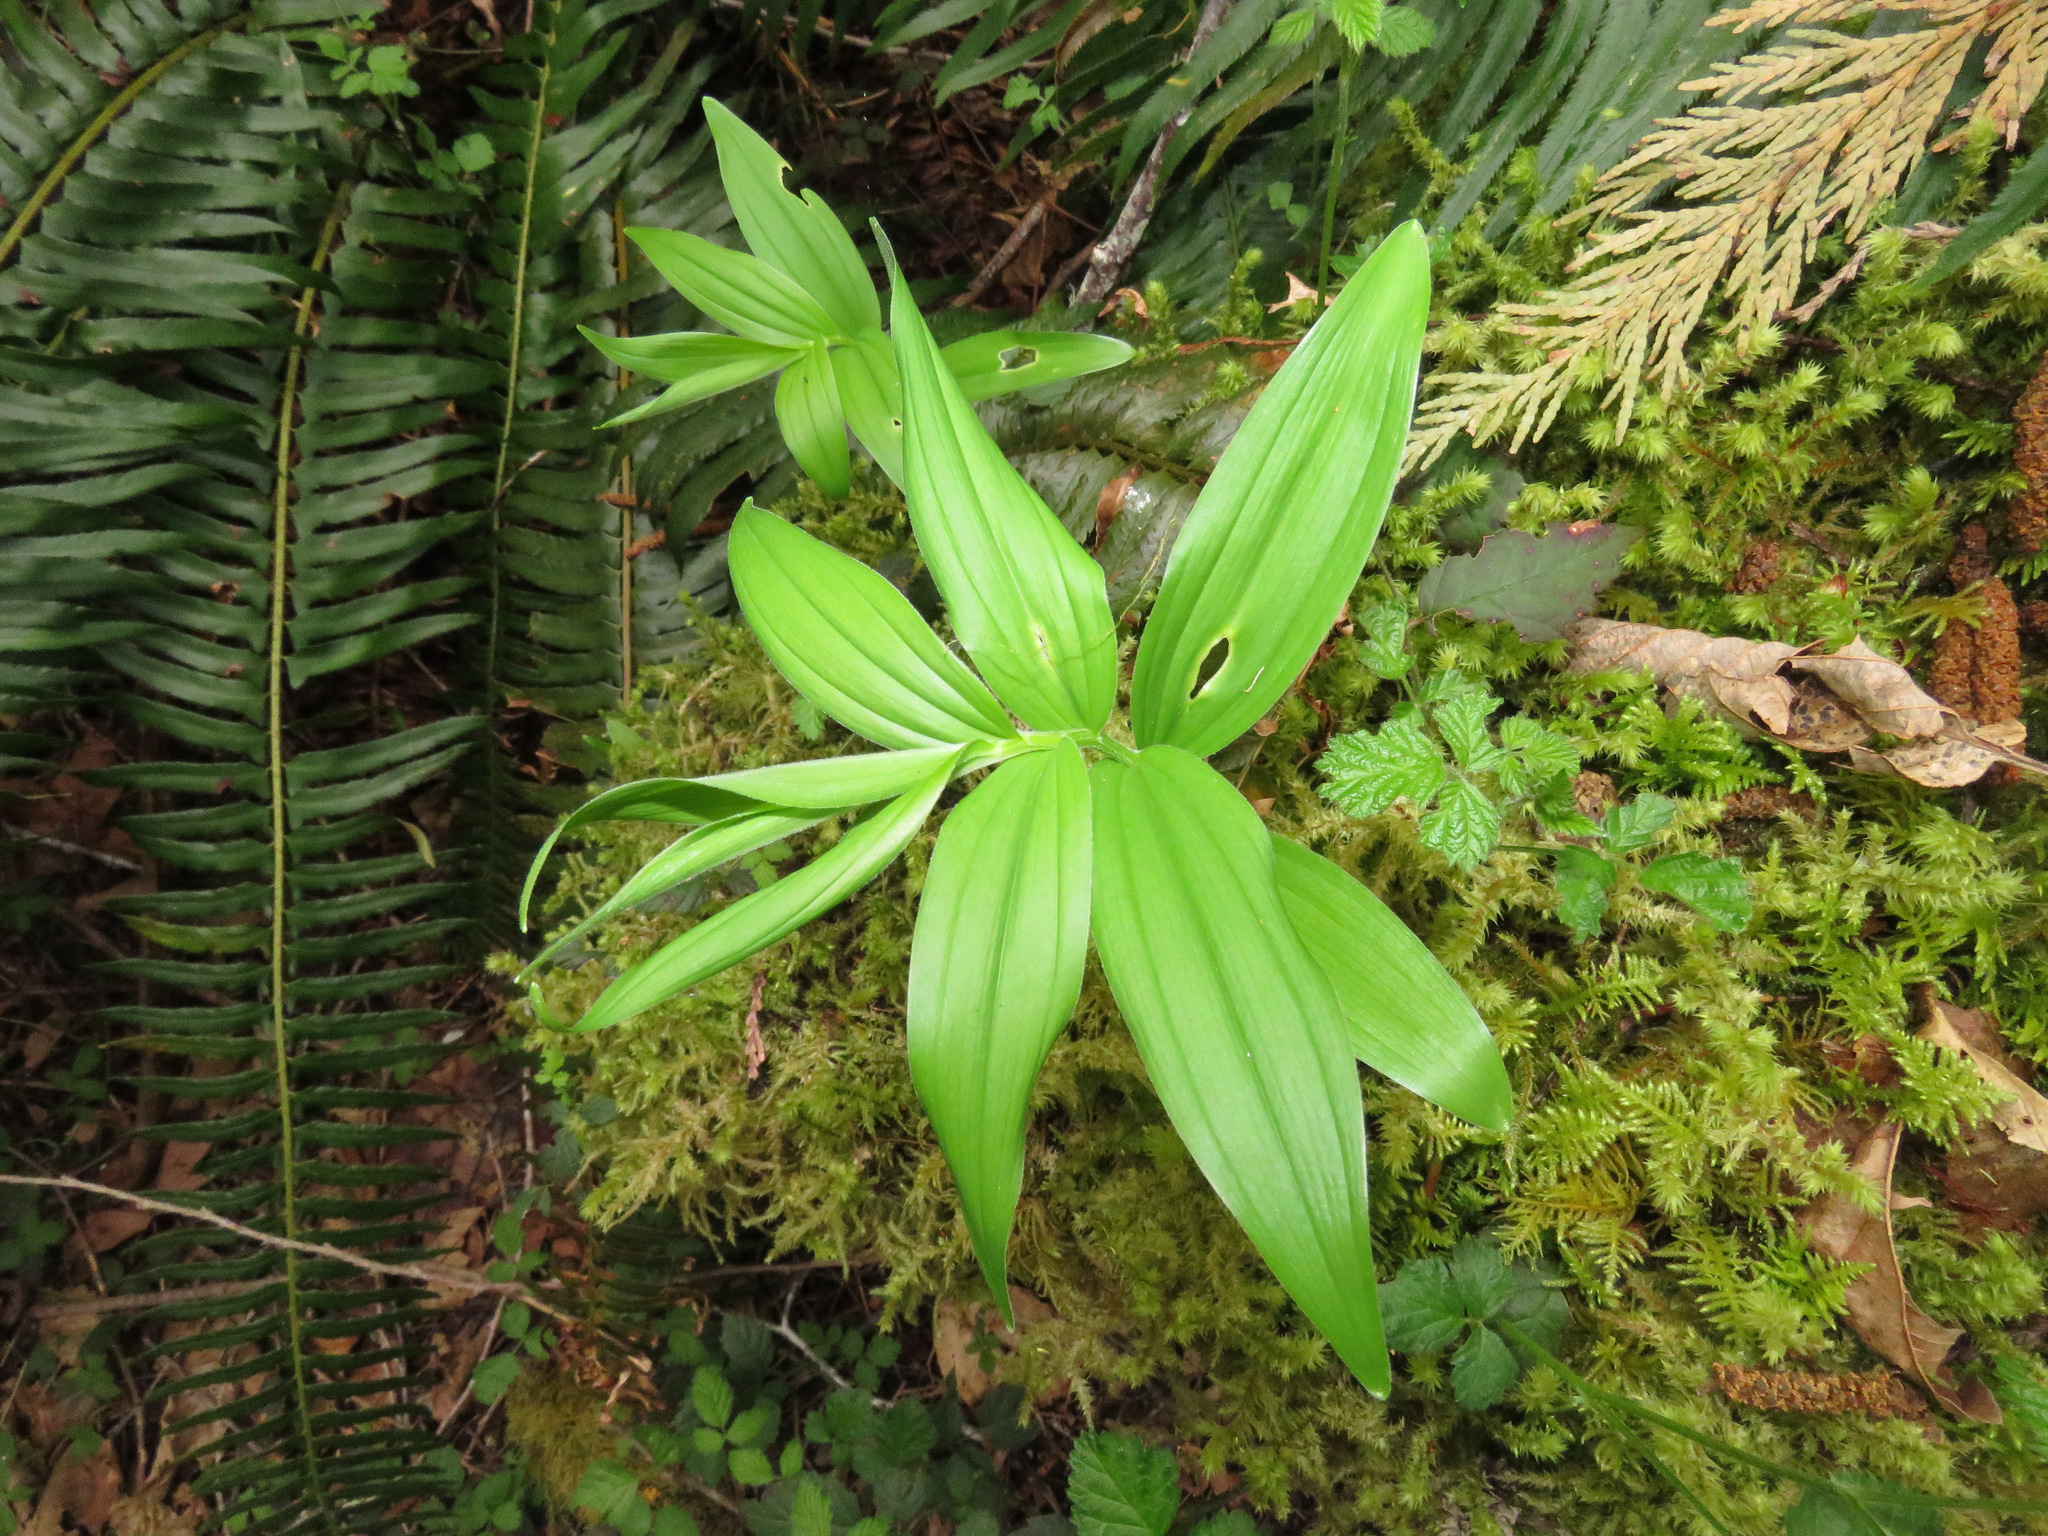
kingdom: Plantae
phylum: Tracheophyta
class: Liliopsida
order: Asparagales
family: Asparagaceae
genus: Maianthemum
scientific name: Maianthemum stellatum
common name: Little false solomon's seal
